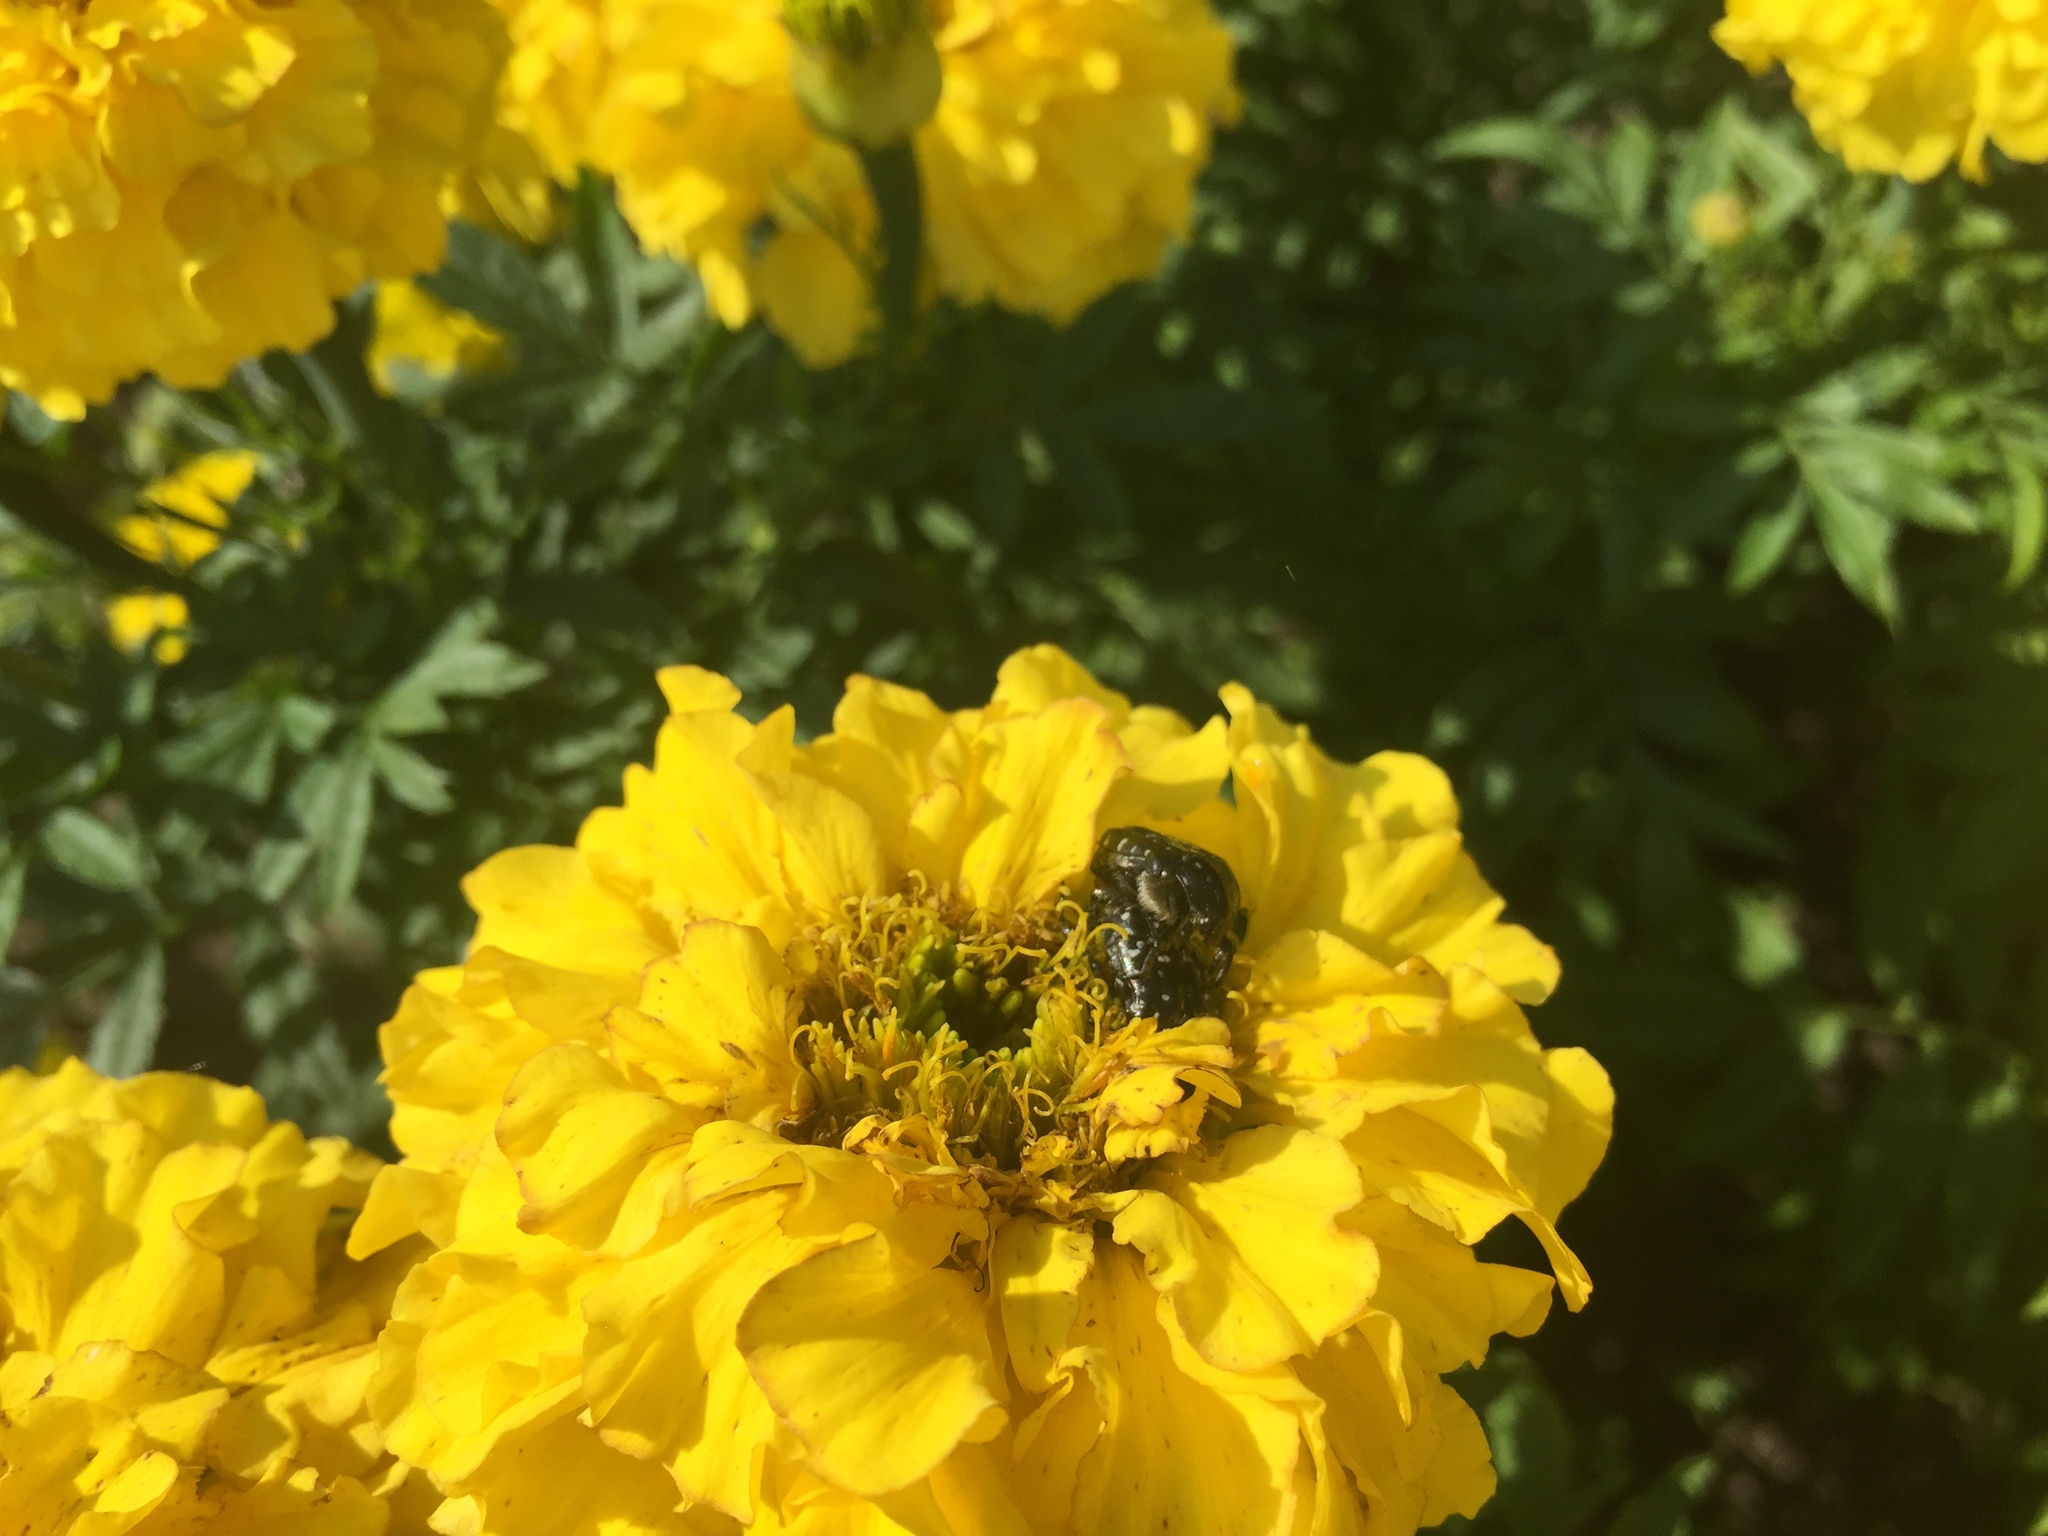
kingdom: Animalia
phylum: Arthropoda
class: Insecta
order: Coleoptera
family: Scarabaeidae
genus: Oxythyrea
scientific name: Oxythyrea funesta
